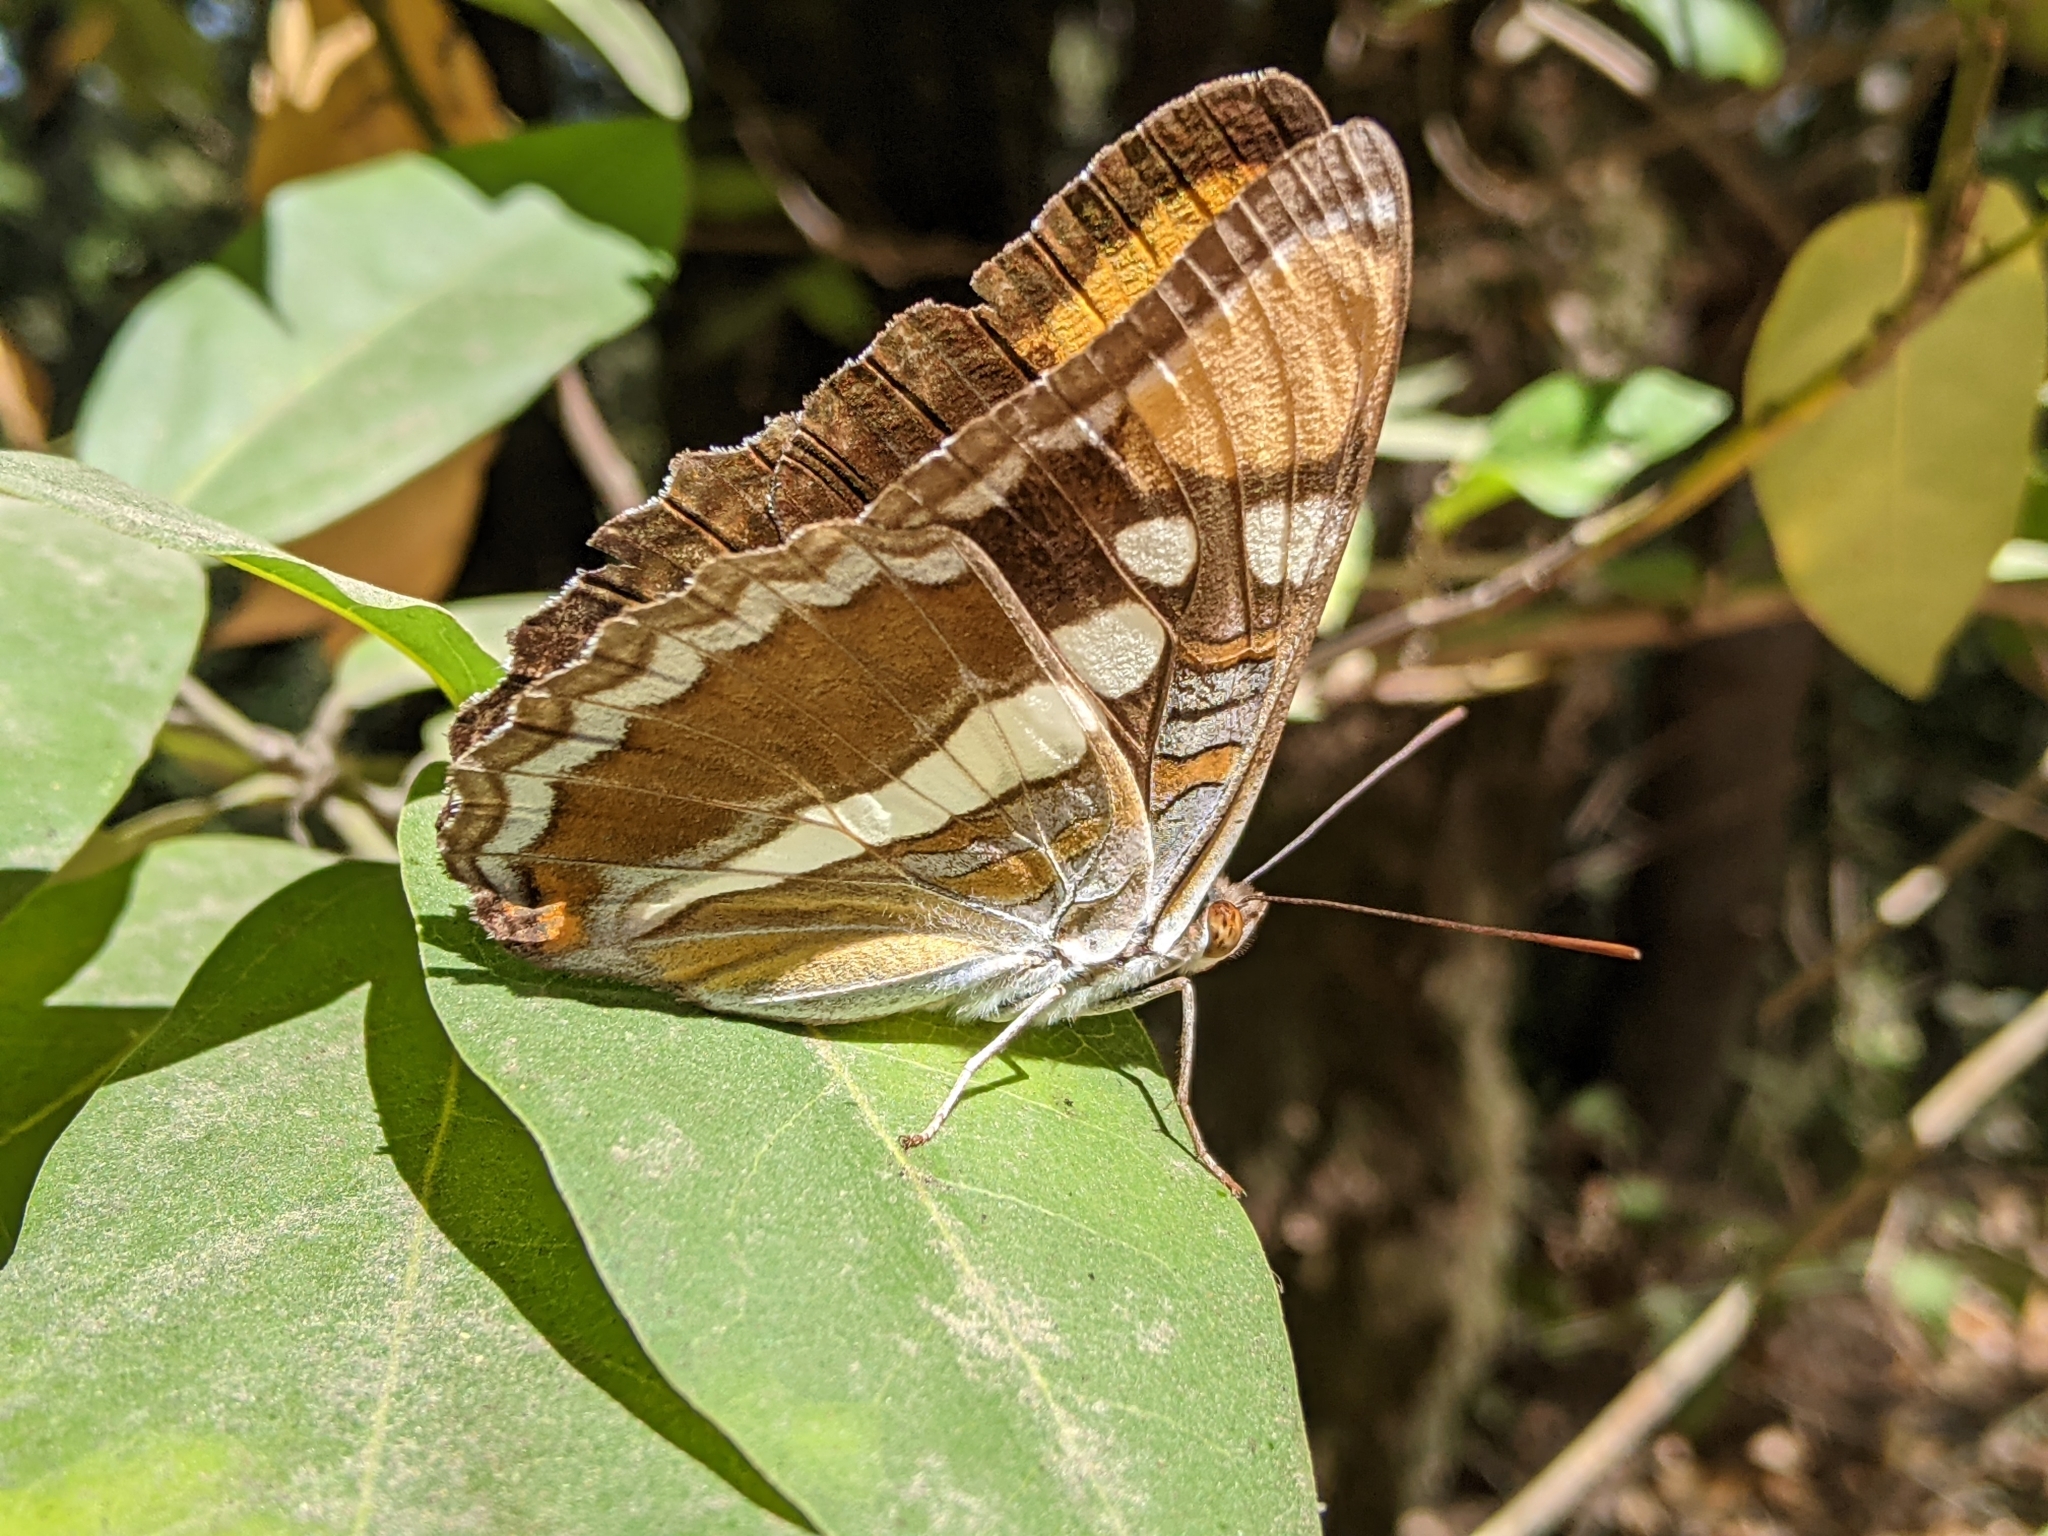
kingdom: Animalia
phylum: Arthropoda
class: Insecta
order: Lepidoptera
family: Nymphalidae
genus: Limenitis
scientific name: Limenitis bredowii
